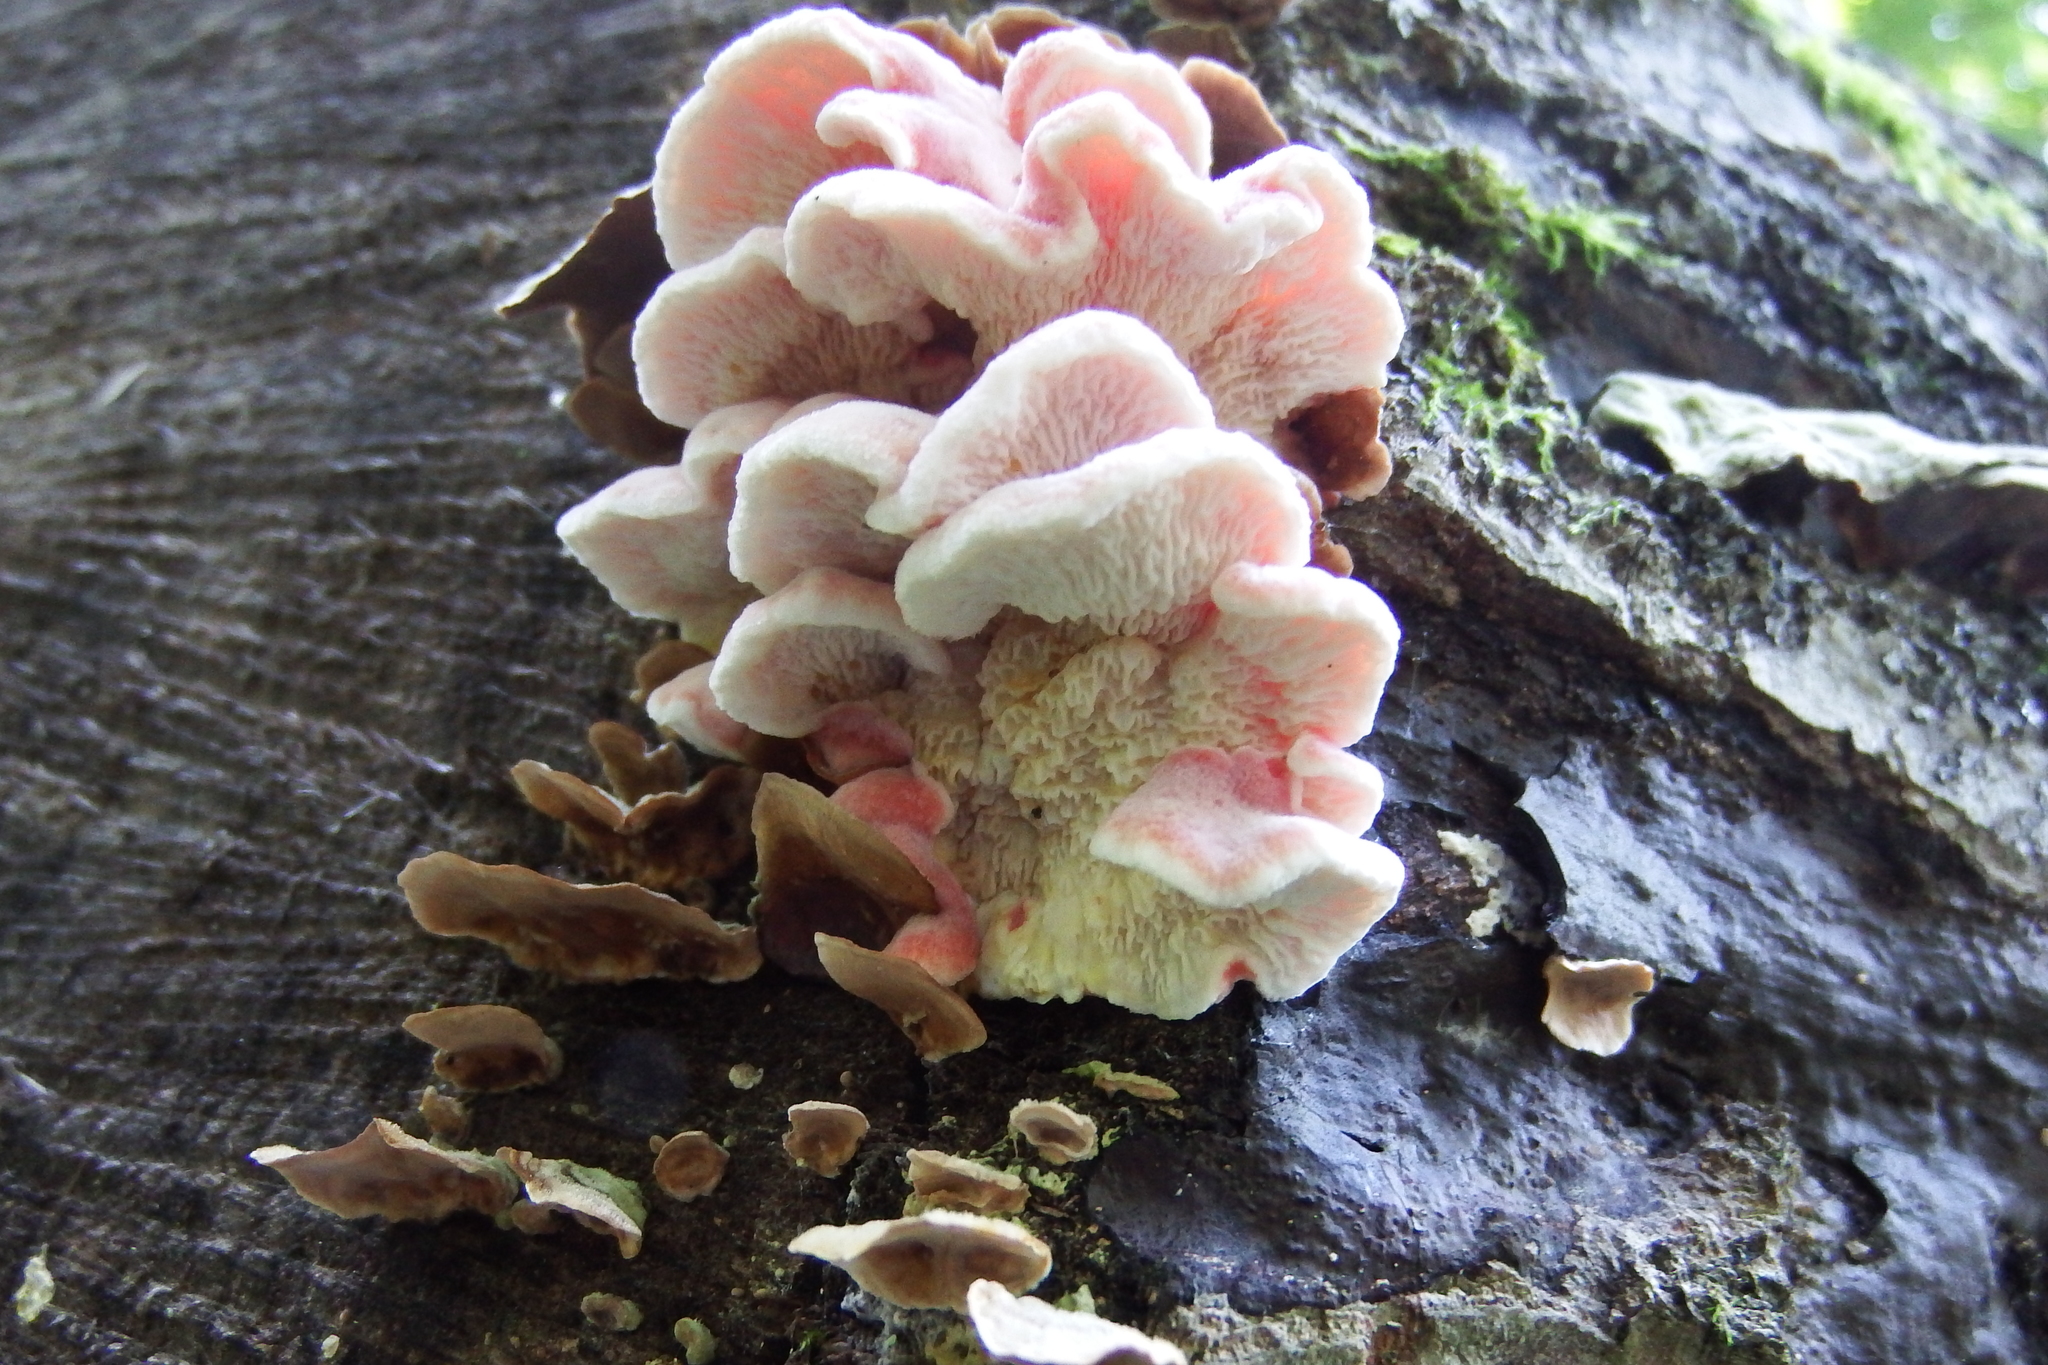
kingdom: Fungi
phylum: Basidiomycota
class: Agaricomycetes
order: Polyporales
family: Irpicaceae
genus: Byssomerulius
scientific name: Byssomerulius incarnatus
